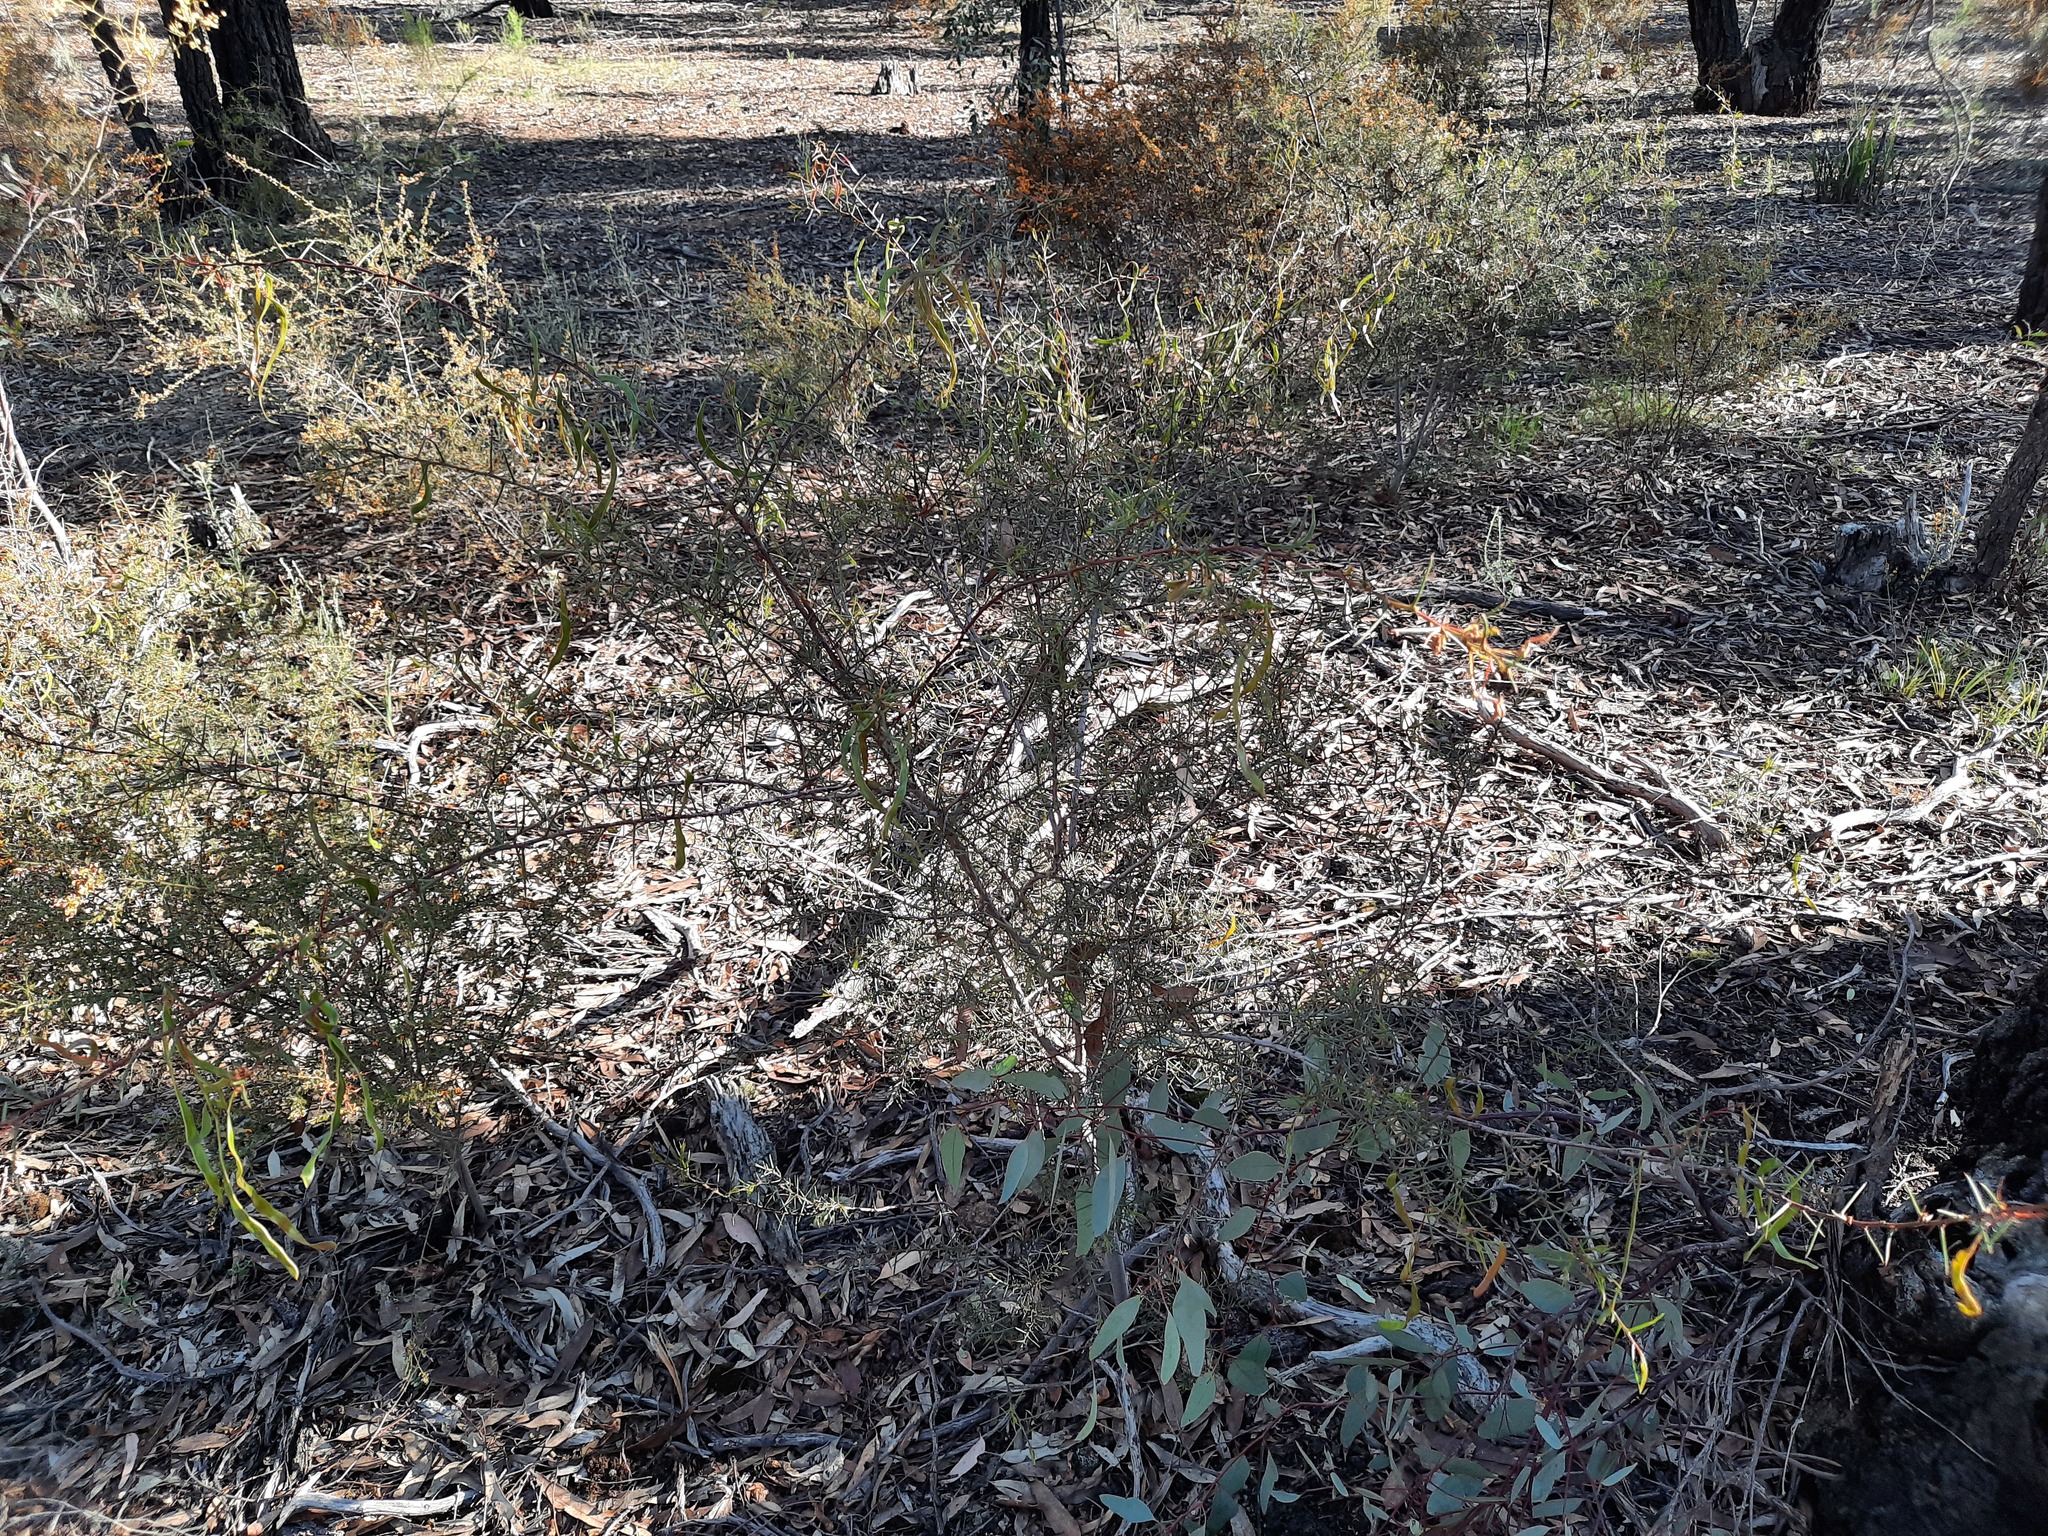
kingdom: Plantae
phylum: Tracheophyta
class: Magnoliopsida
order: Fabales
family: Fabaceae
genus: Acacia
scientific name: Acacia genistifolia
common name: Early wattle
